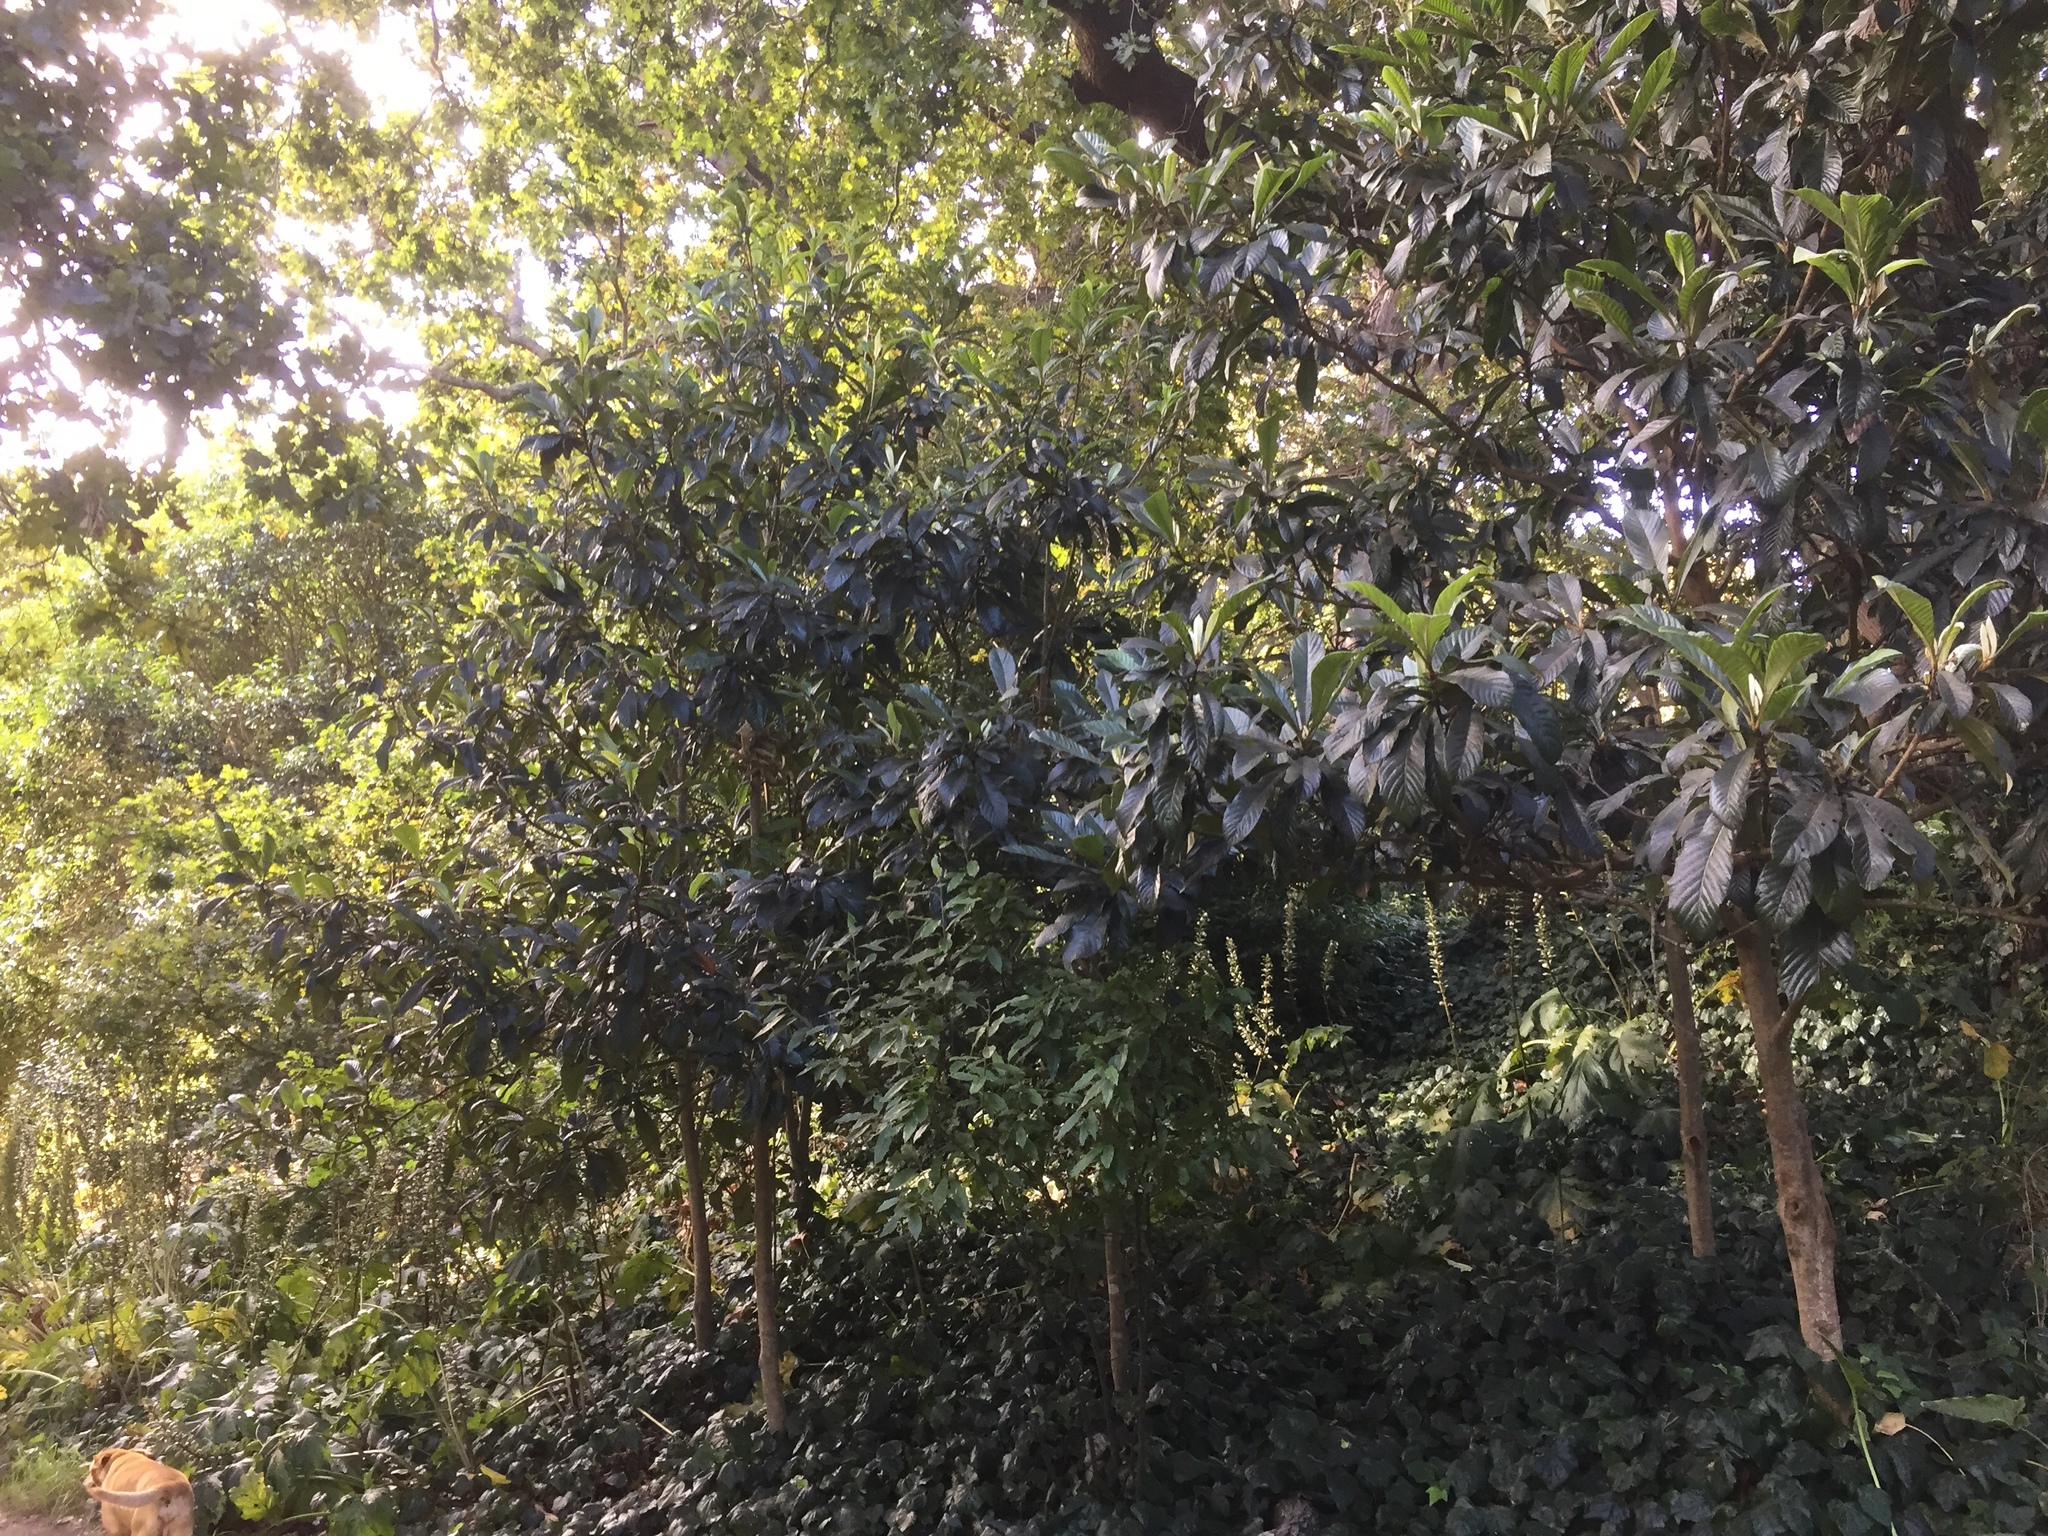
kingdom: Plantae
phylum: Tracheophyta
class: Magnoliopsida
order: Rosales
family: Rosaceae
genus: Rhaphiolepis
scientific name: Rhaphiolepis bibas
